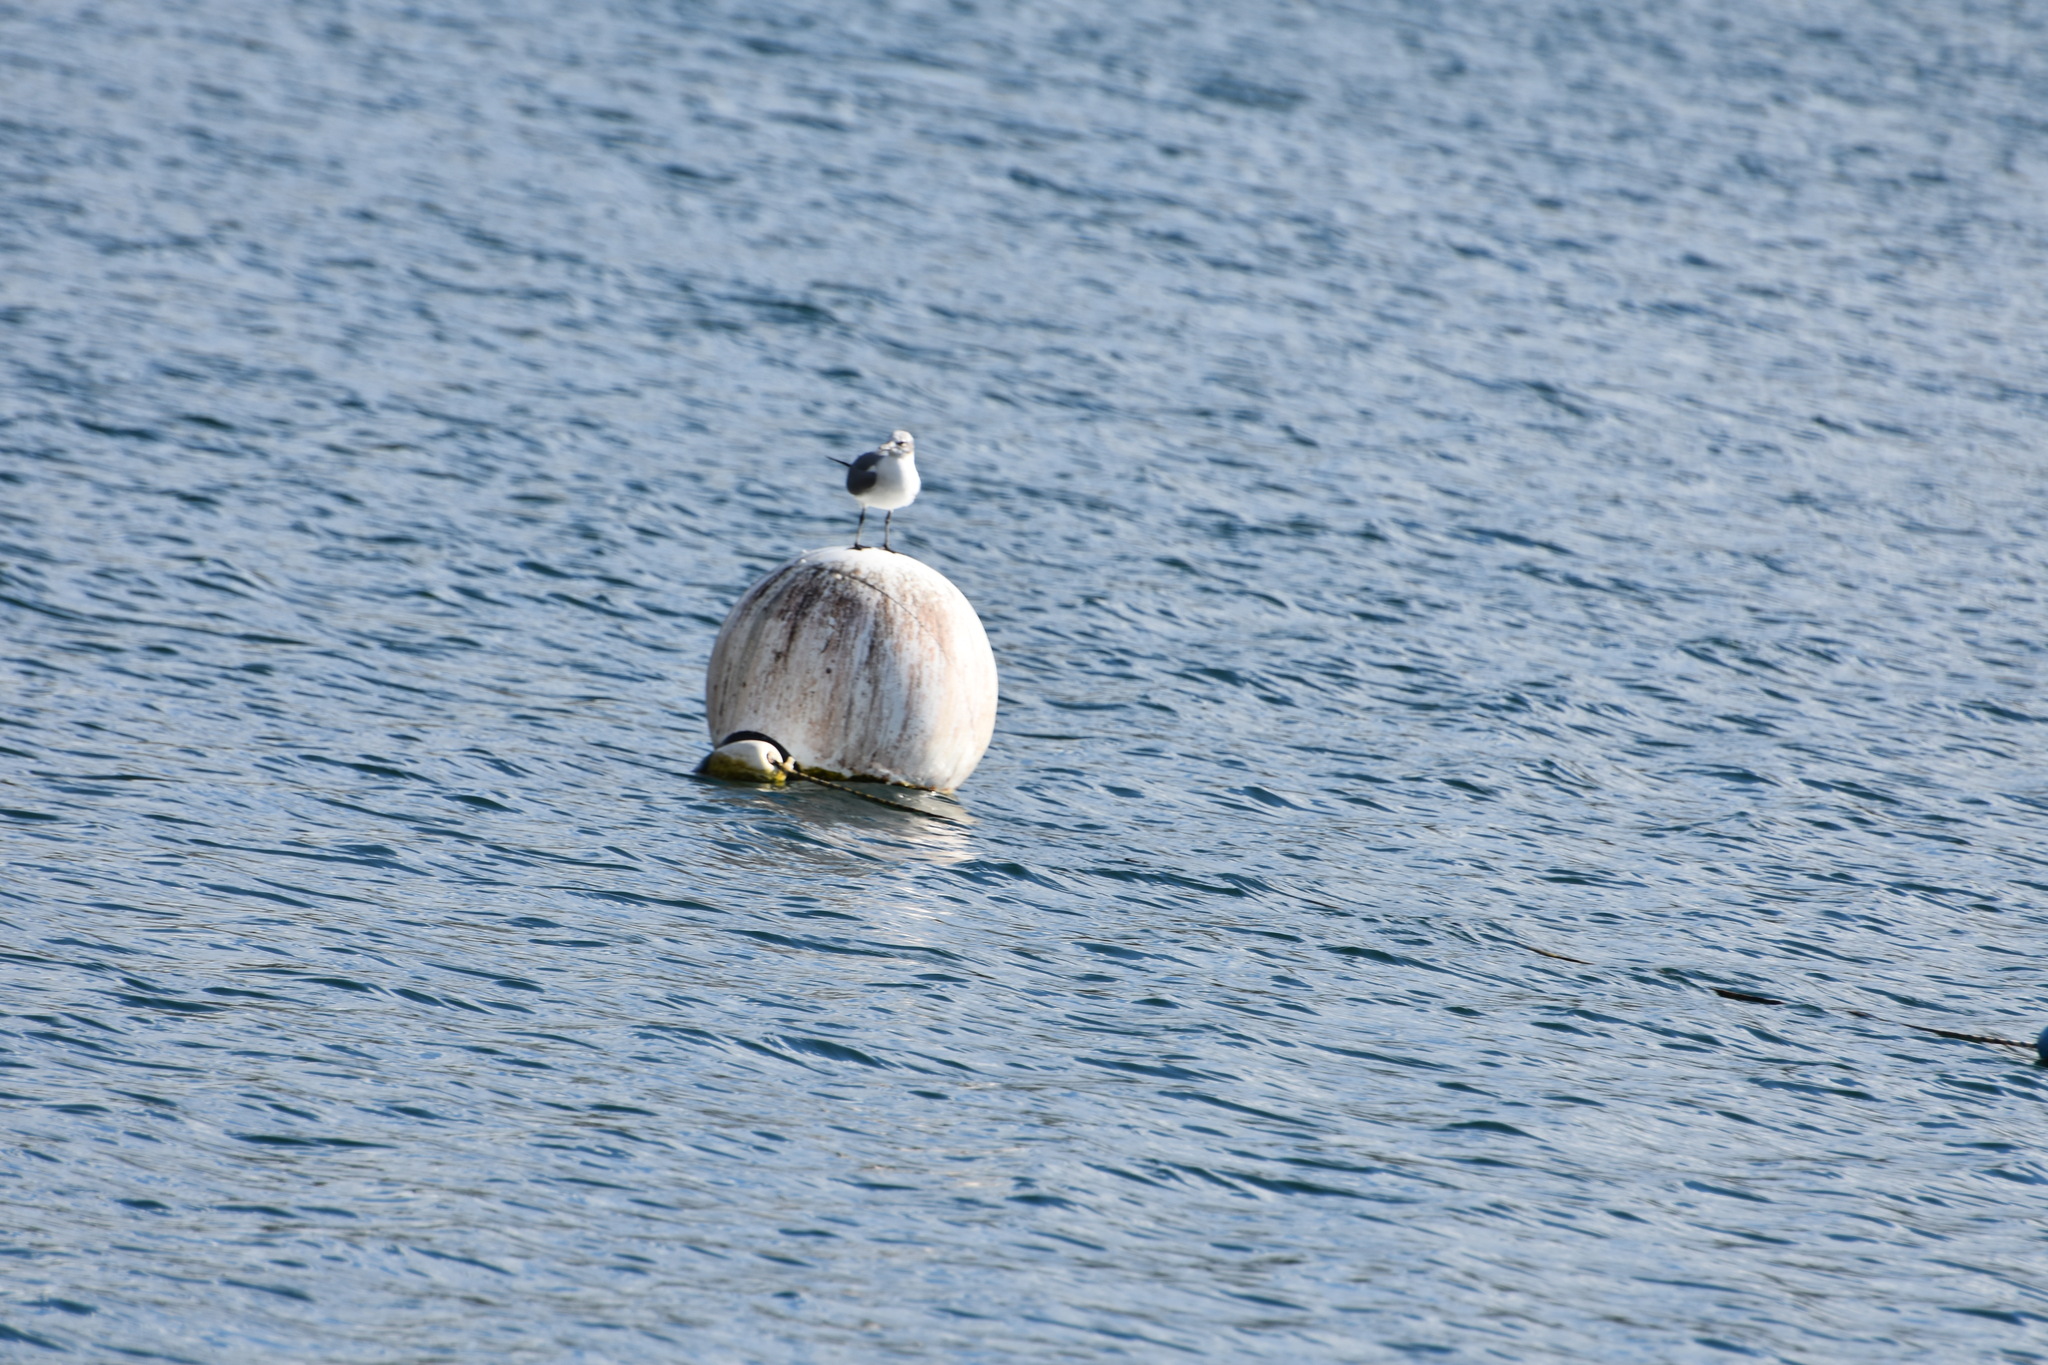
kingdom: Animalia
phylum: Chordata
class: Aves
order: Charadriiformes
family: Laridae
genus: Leucophaeus
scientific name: Leucophaeus atricilla
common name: Laughing gull
